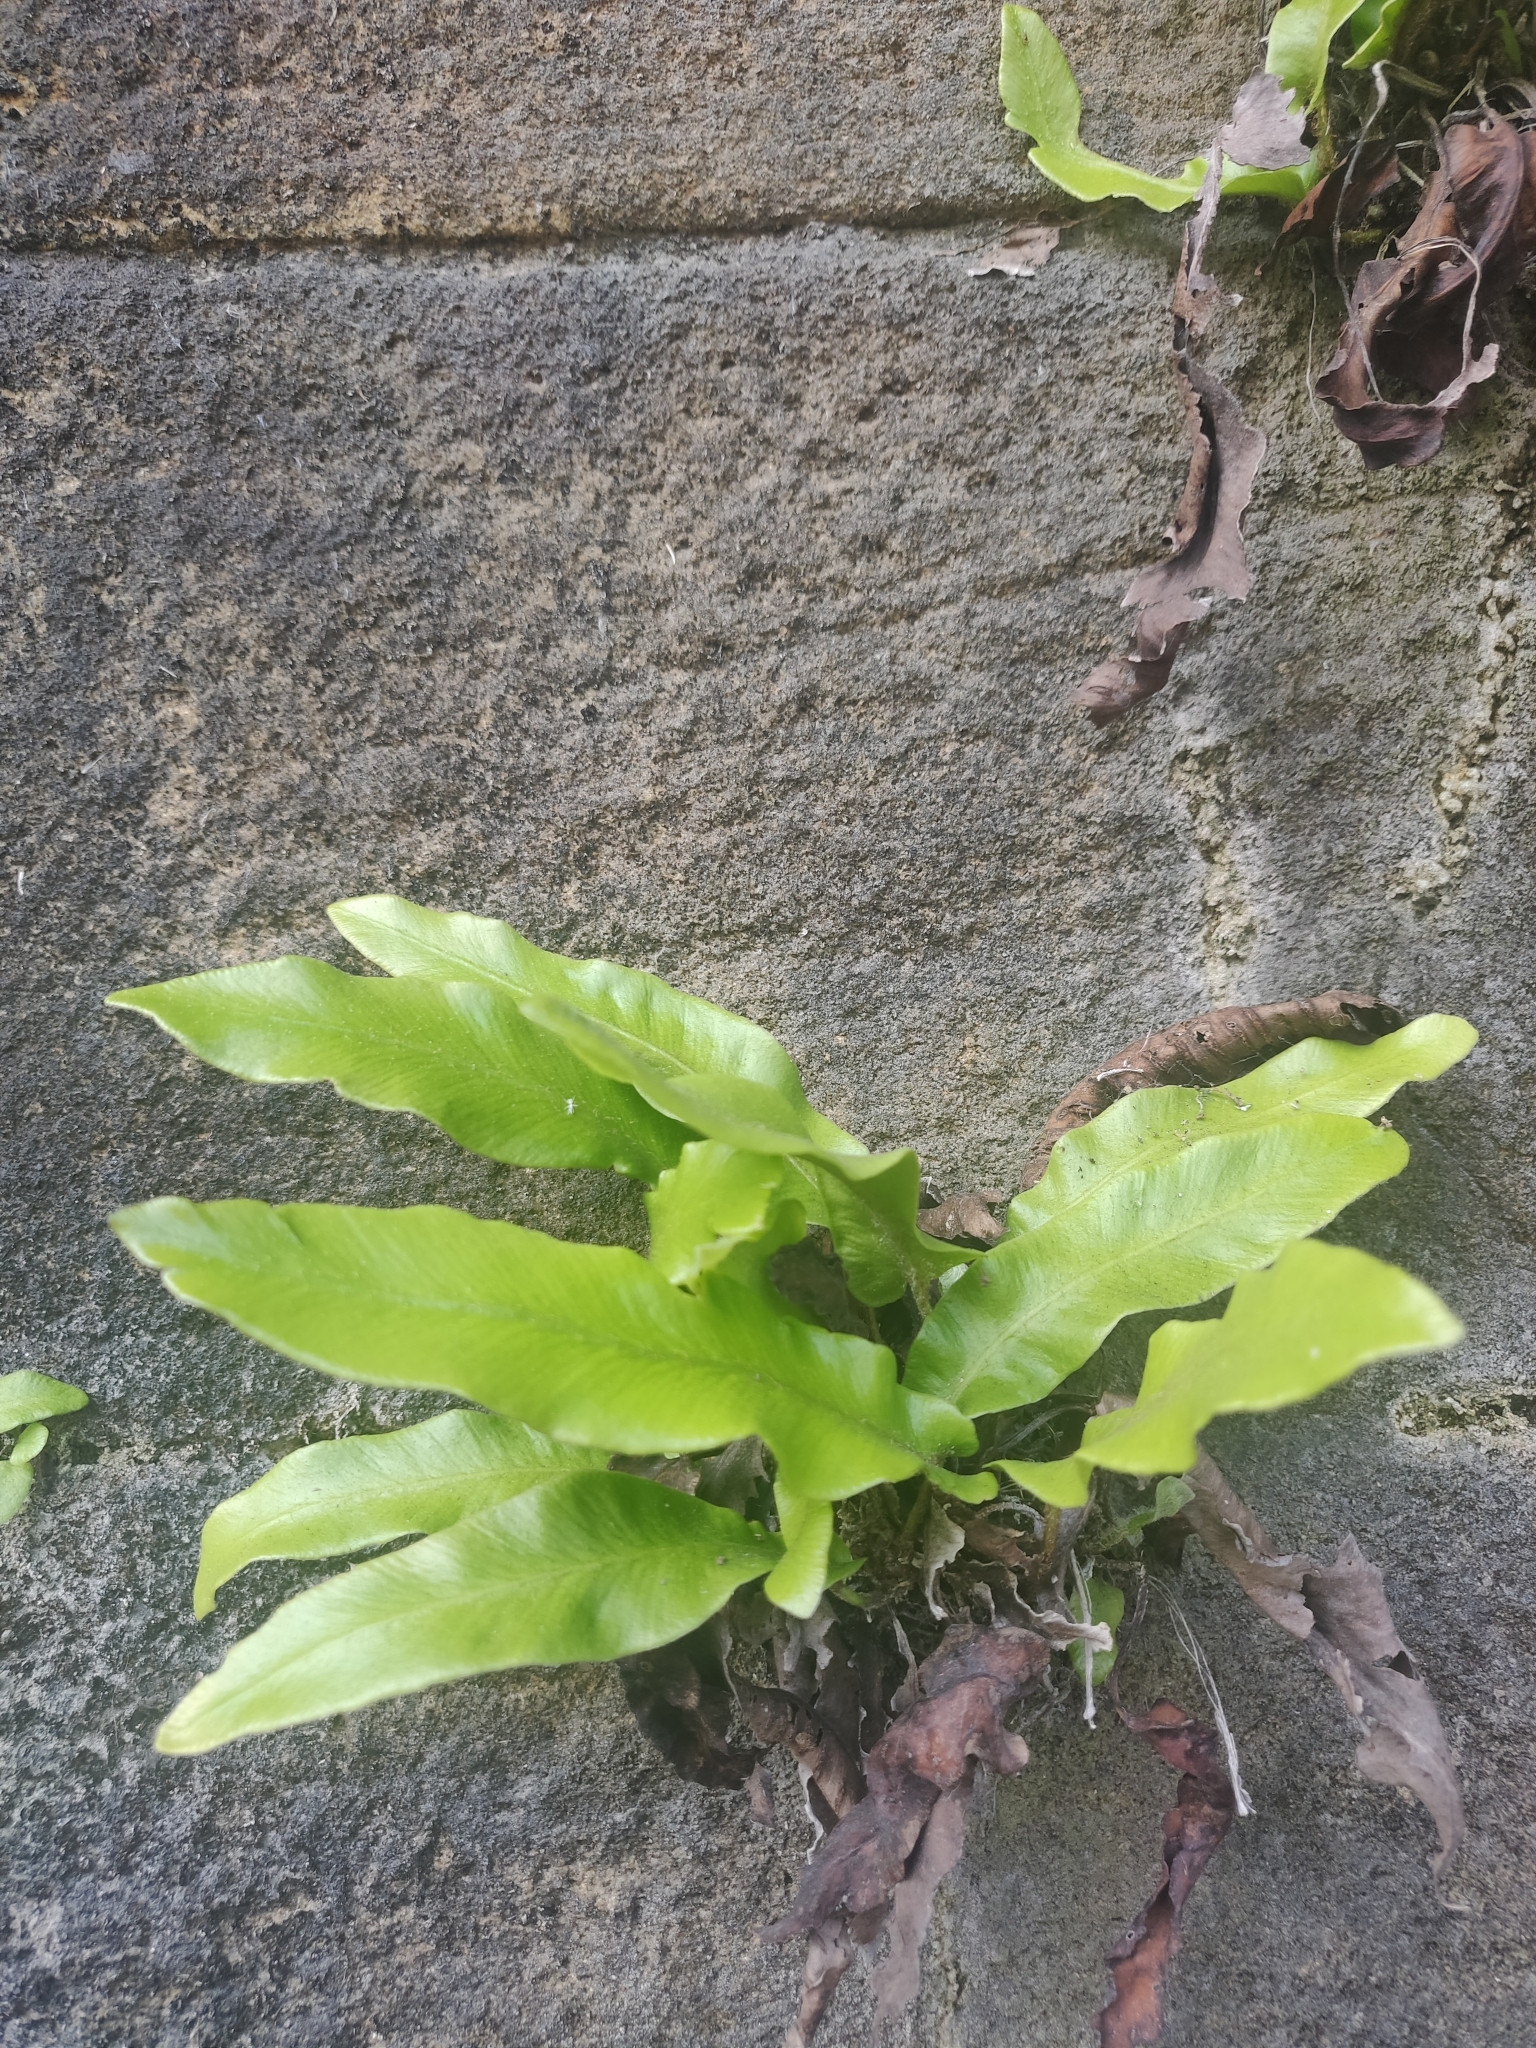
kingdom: Plantae
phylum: Tracheophyta
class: Polypodiopsida
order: Polypodiales
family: Aspleniaceae
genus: Asplenium
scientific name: Asplenium scolopendrium
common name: Hart's-tongue fern
